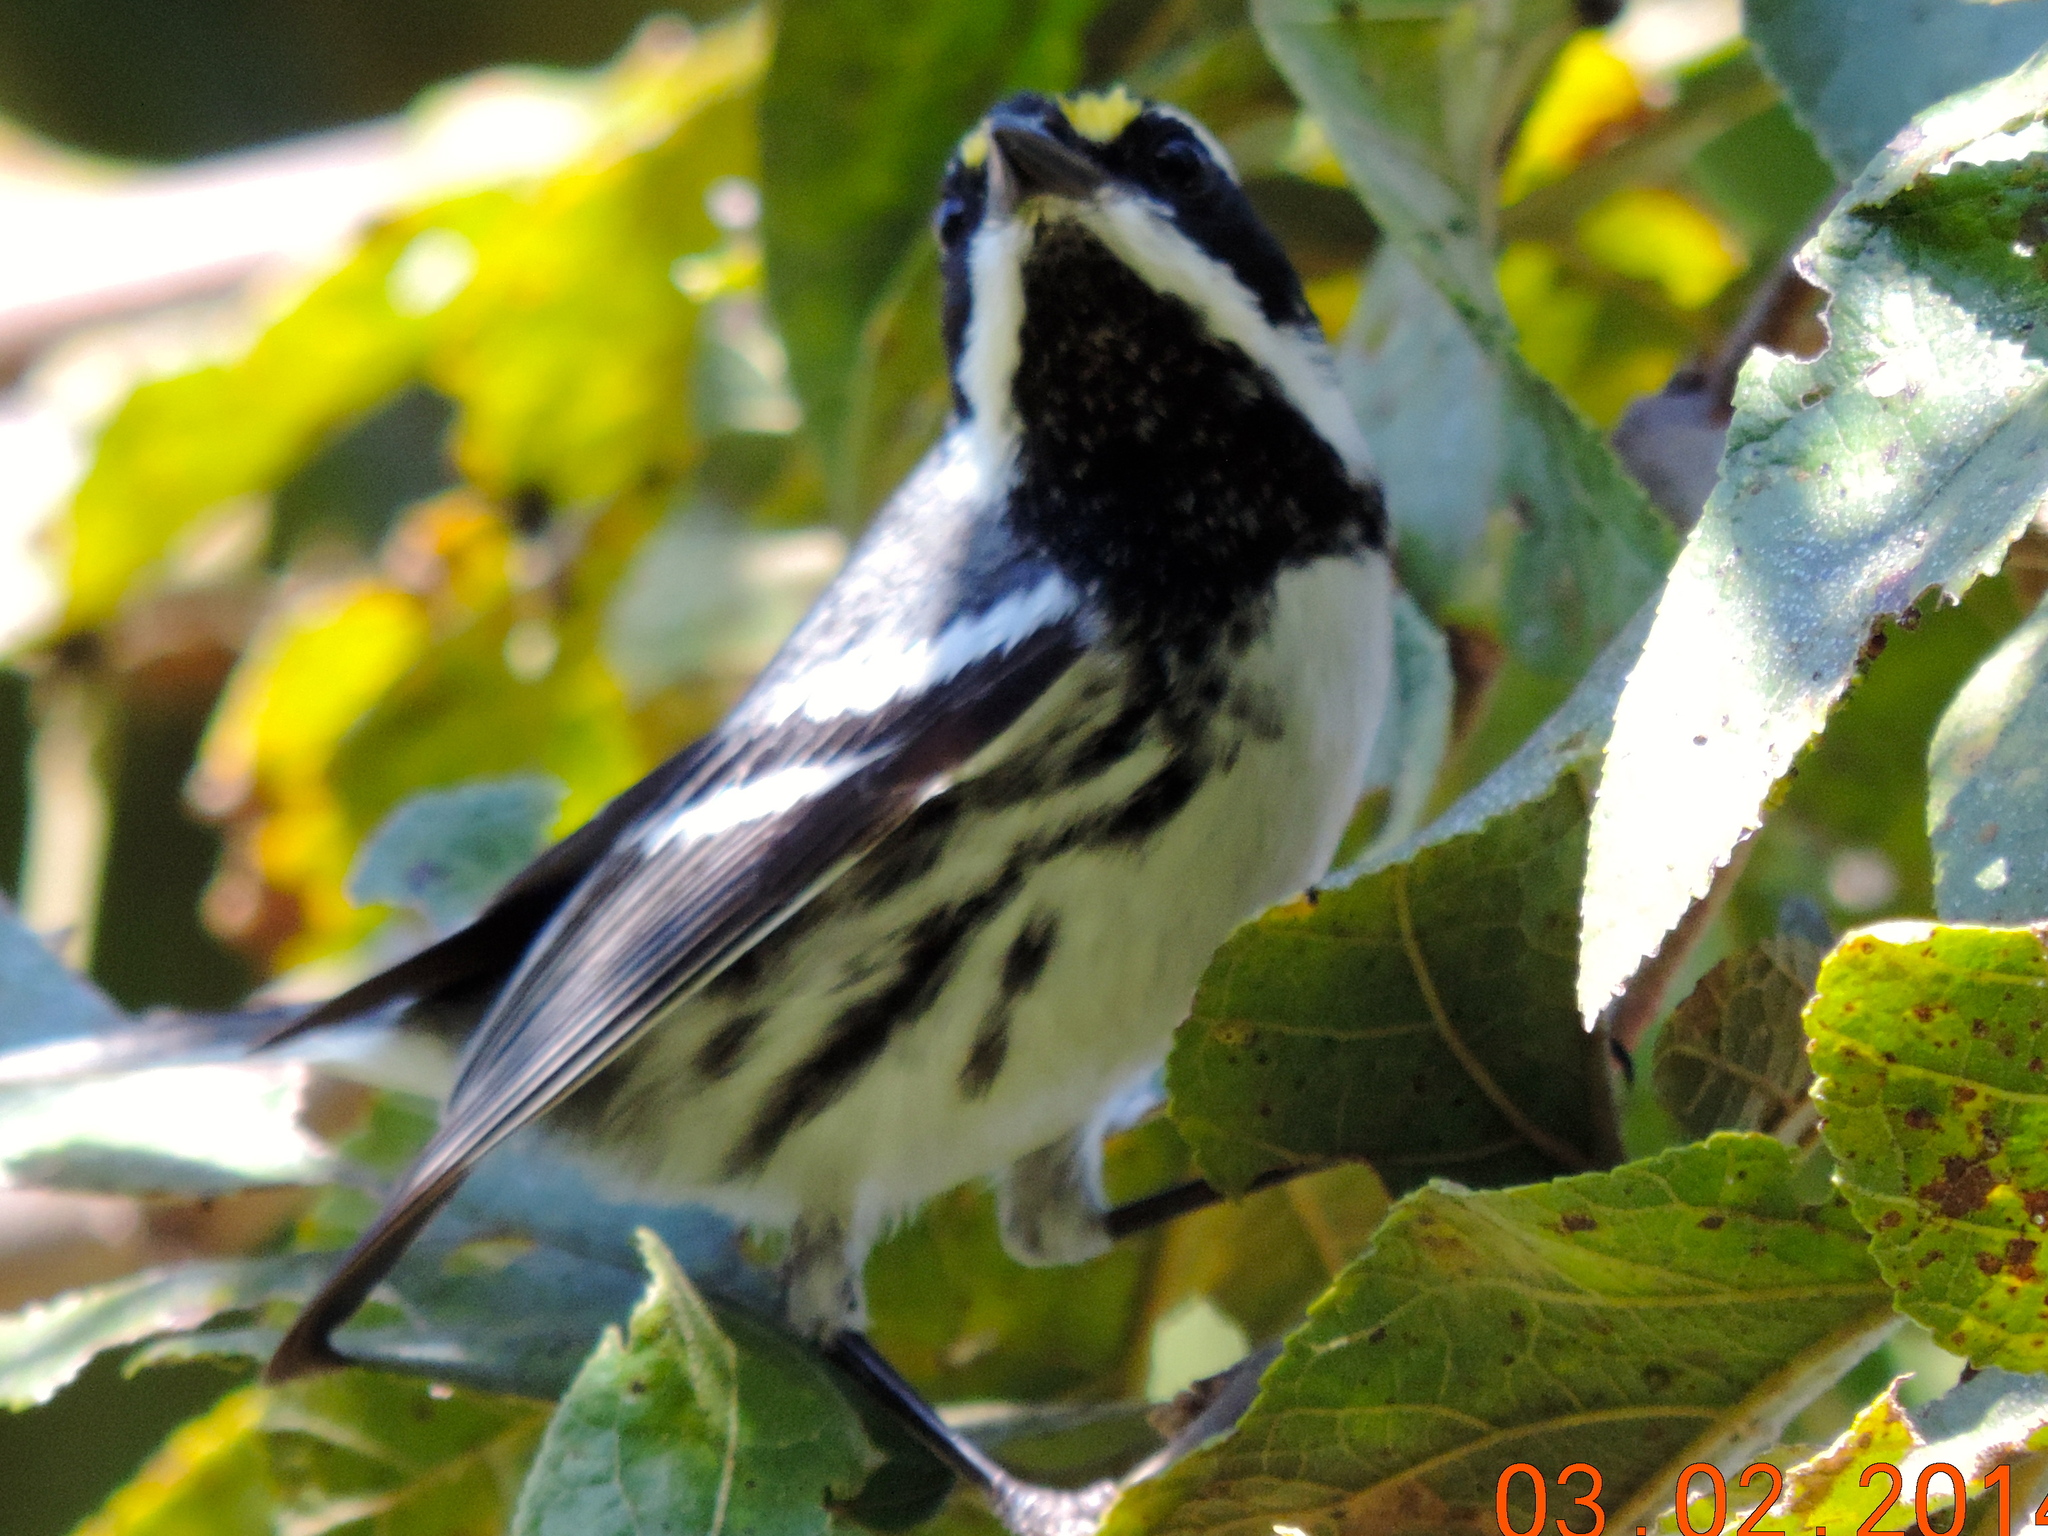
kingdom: Animalia
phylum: Chordata
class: Aves
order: Passeriformes
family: Parulidae
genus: Setophaga
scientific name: Setophaga nigrescens
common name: Black-throated gray warbler
